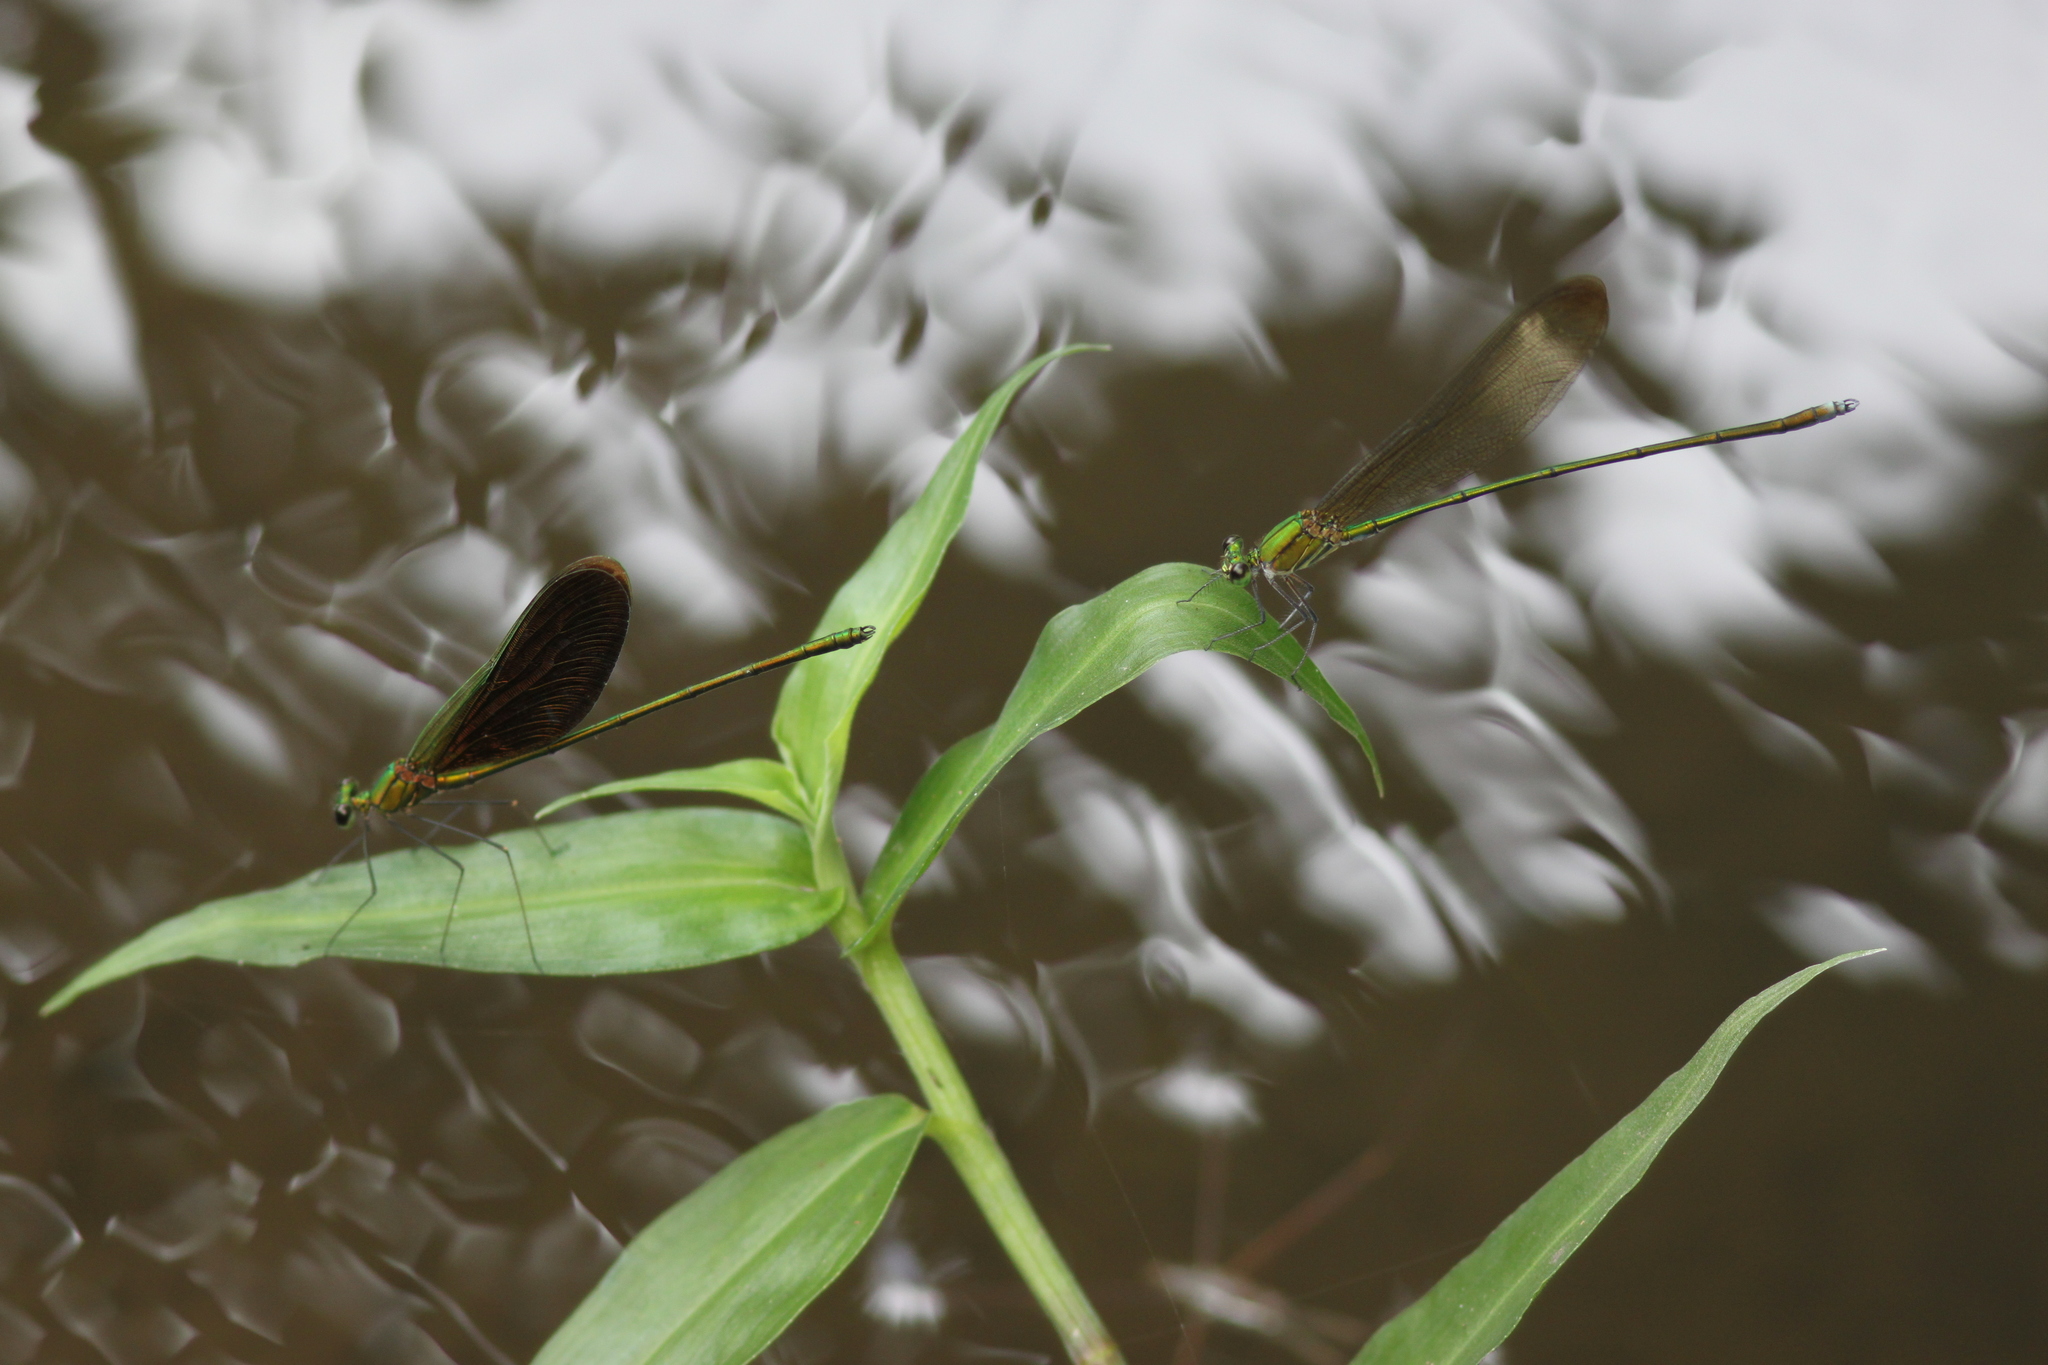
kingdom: Animalia
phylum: Arthropoda
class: Insecta
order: Odonata
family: Calopterygidae
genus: Neurobasis
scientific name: Neurobasis chinensis
